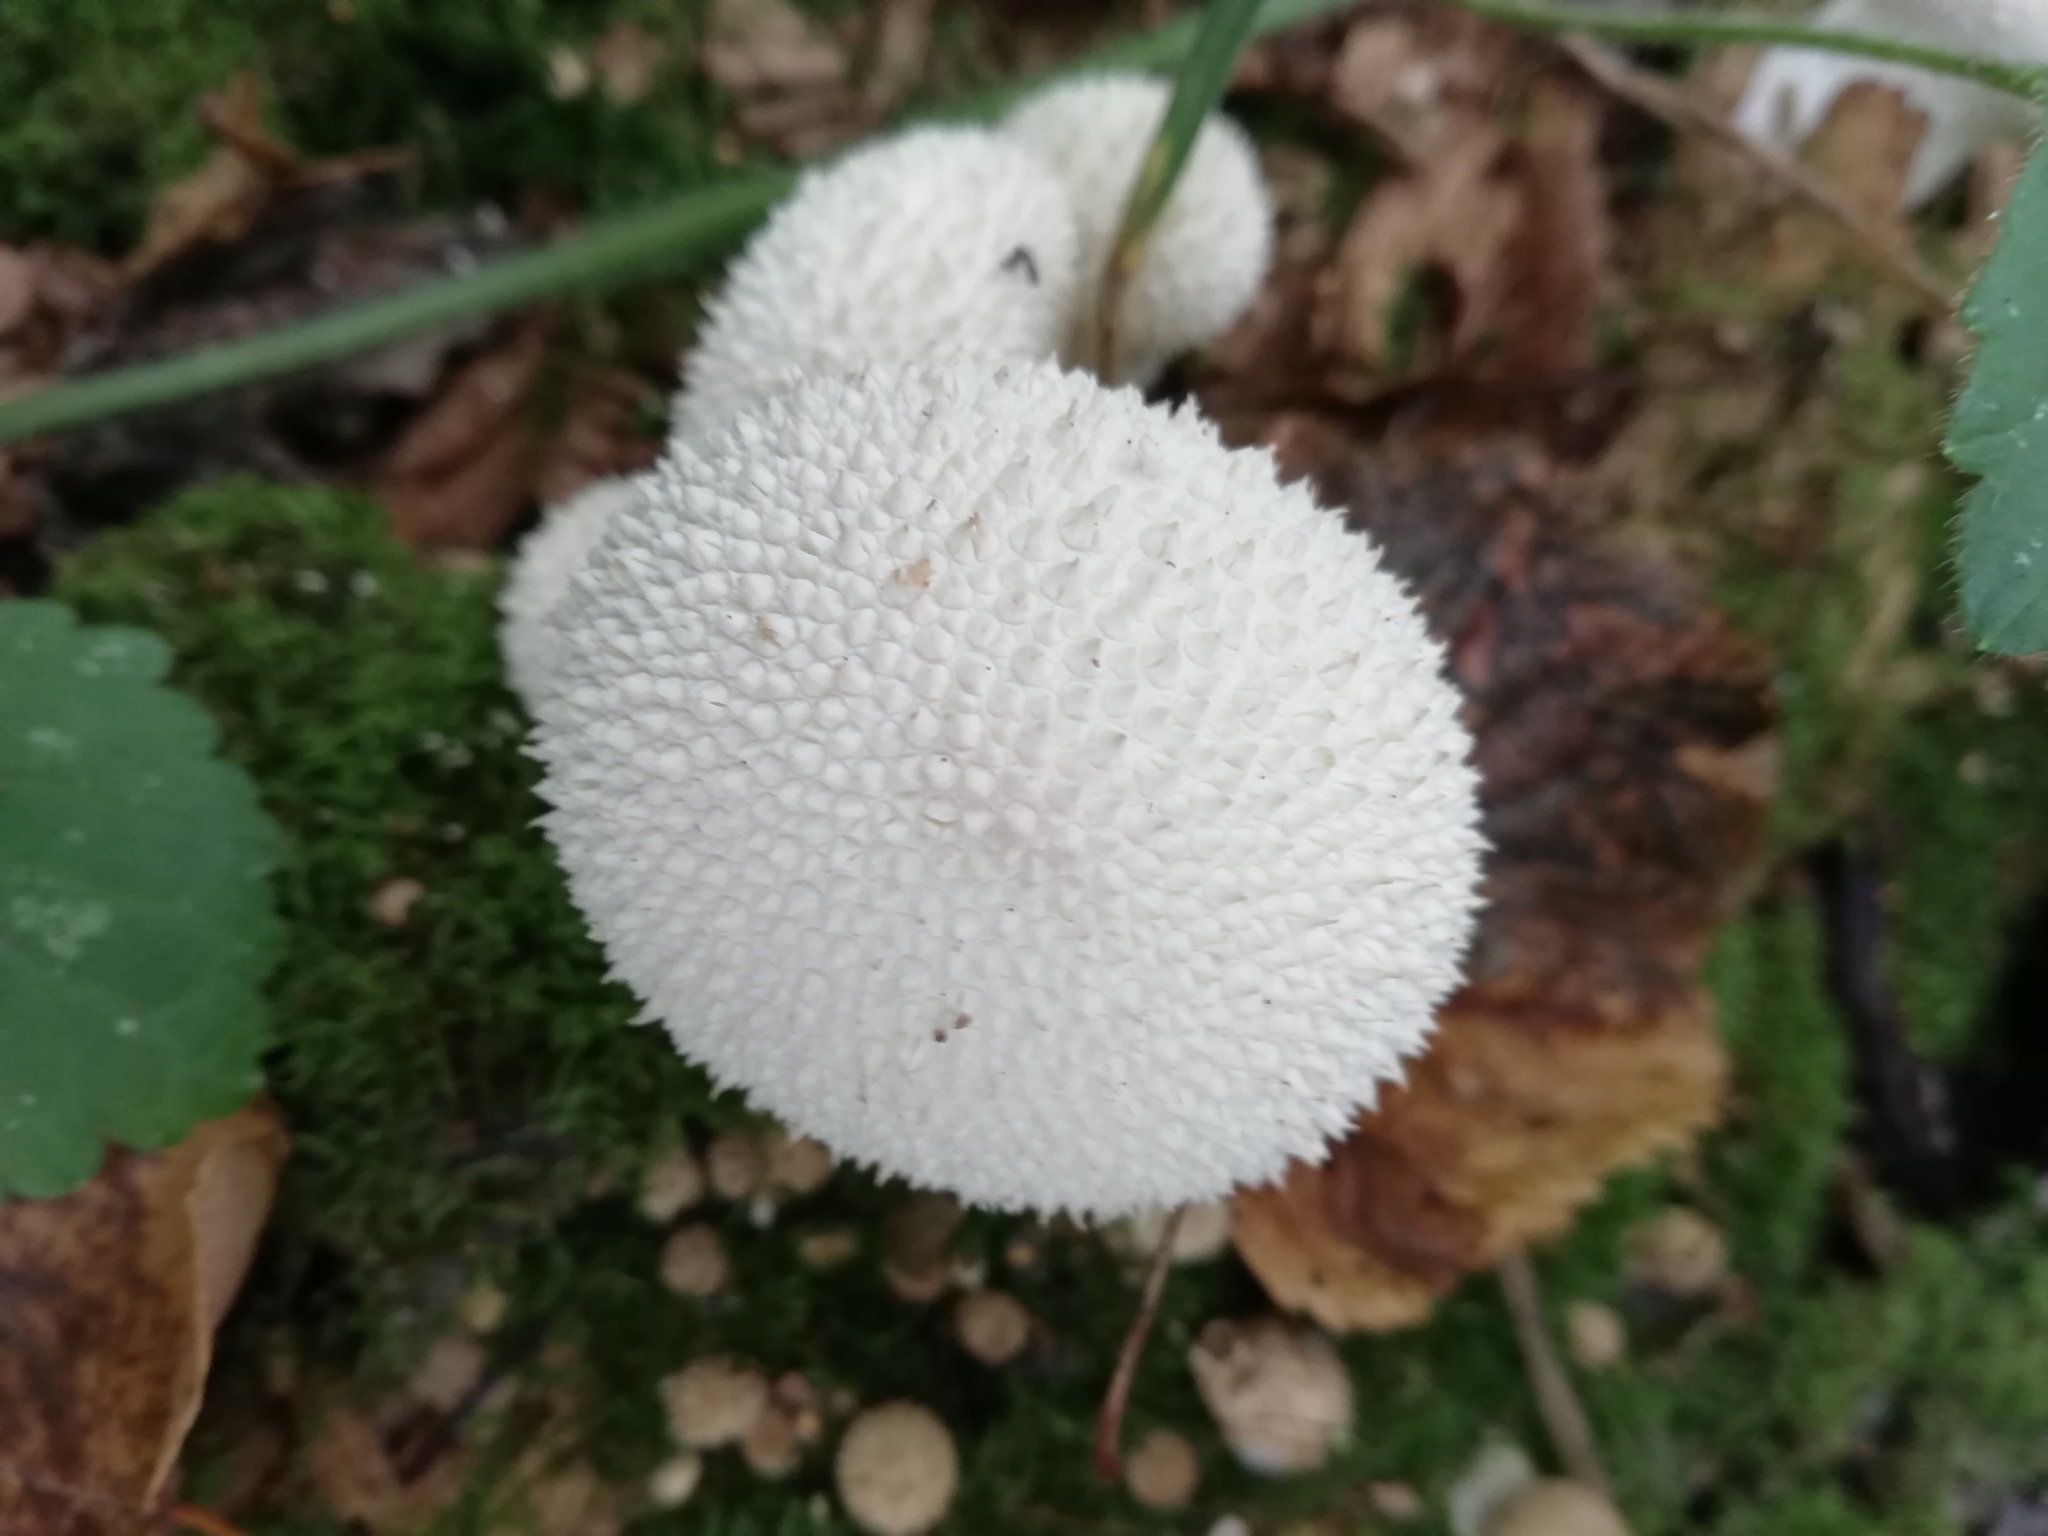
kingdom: Fungi
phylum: Basidiomycota
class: Agaricomycetes
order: Agaricales
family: Lycoperdaceae
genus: Lycoperdon
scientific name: Lycoperdon perlatum
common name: Common puffball
